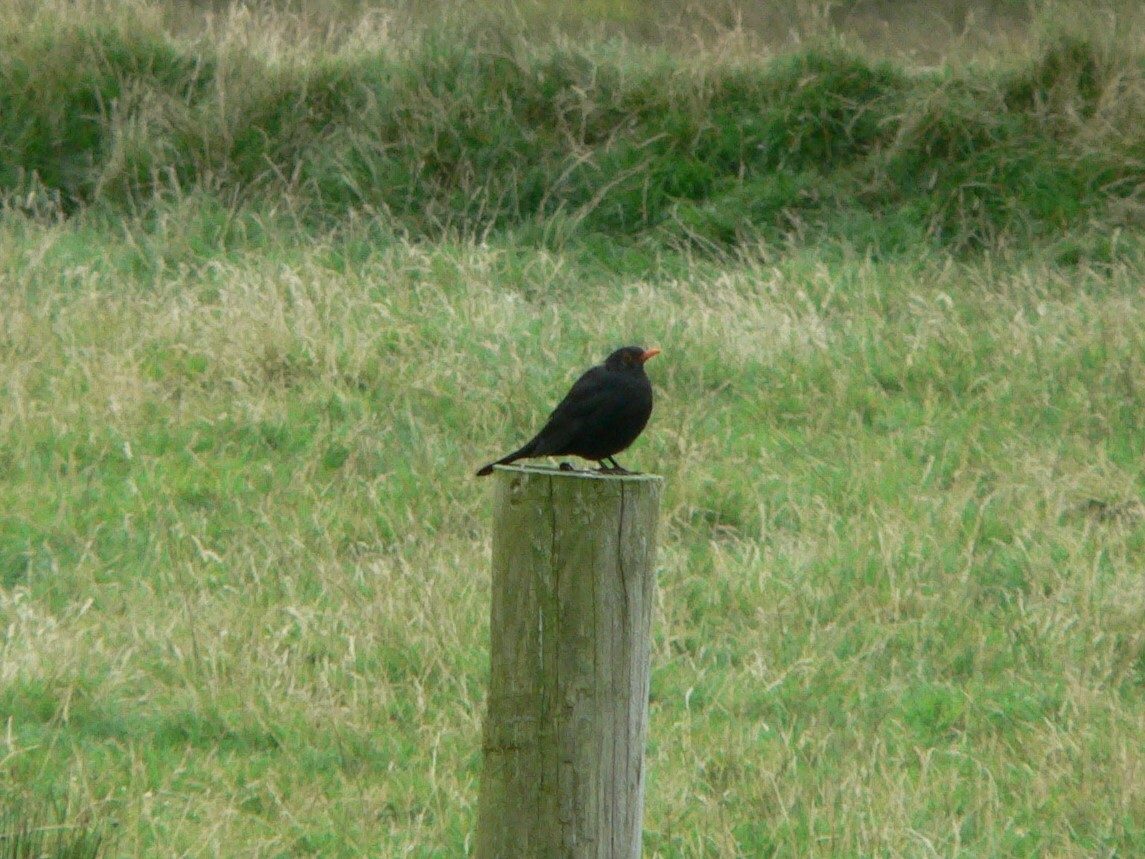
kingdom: Animalia
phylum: Chordata
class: Aves
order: Passeriformes
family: Turdidae
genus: Turdus
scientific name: Turdus merula
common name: Common blackbird
